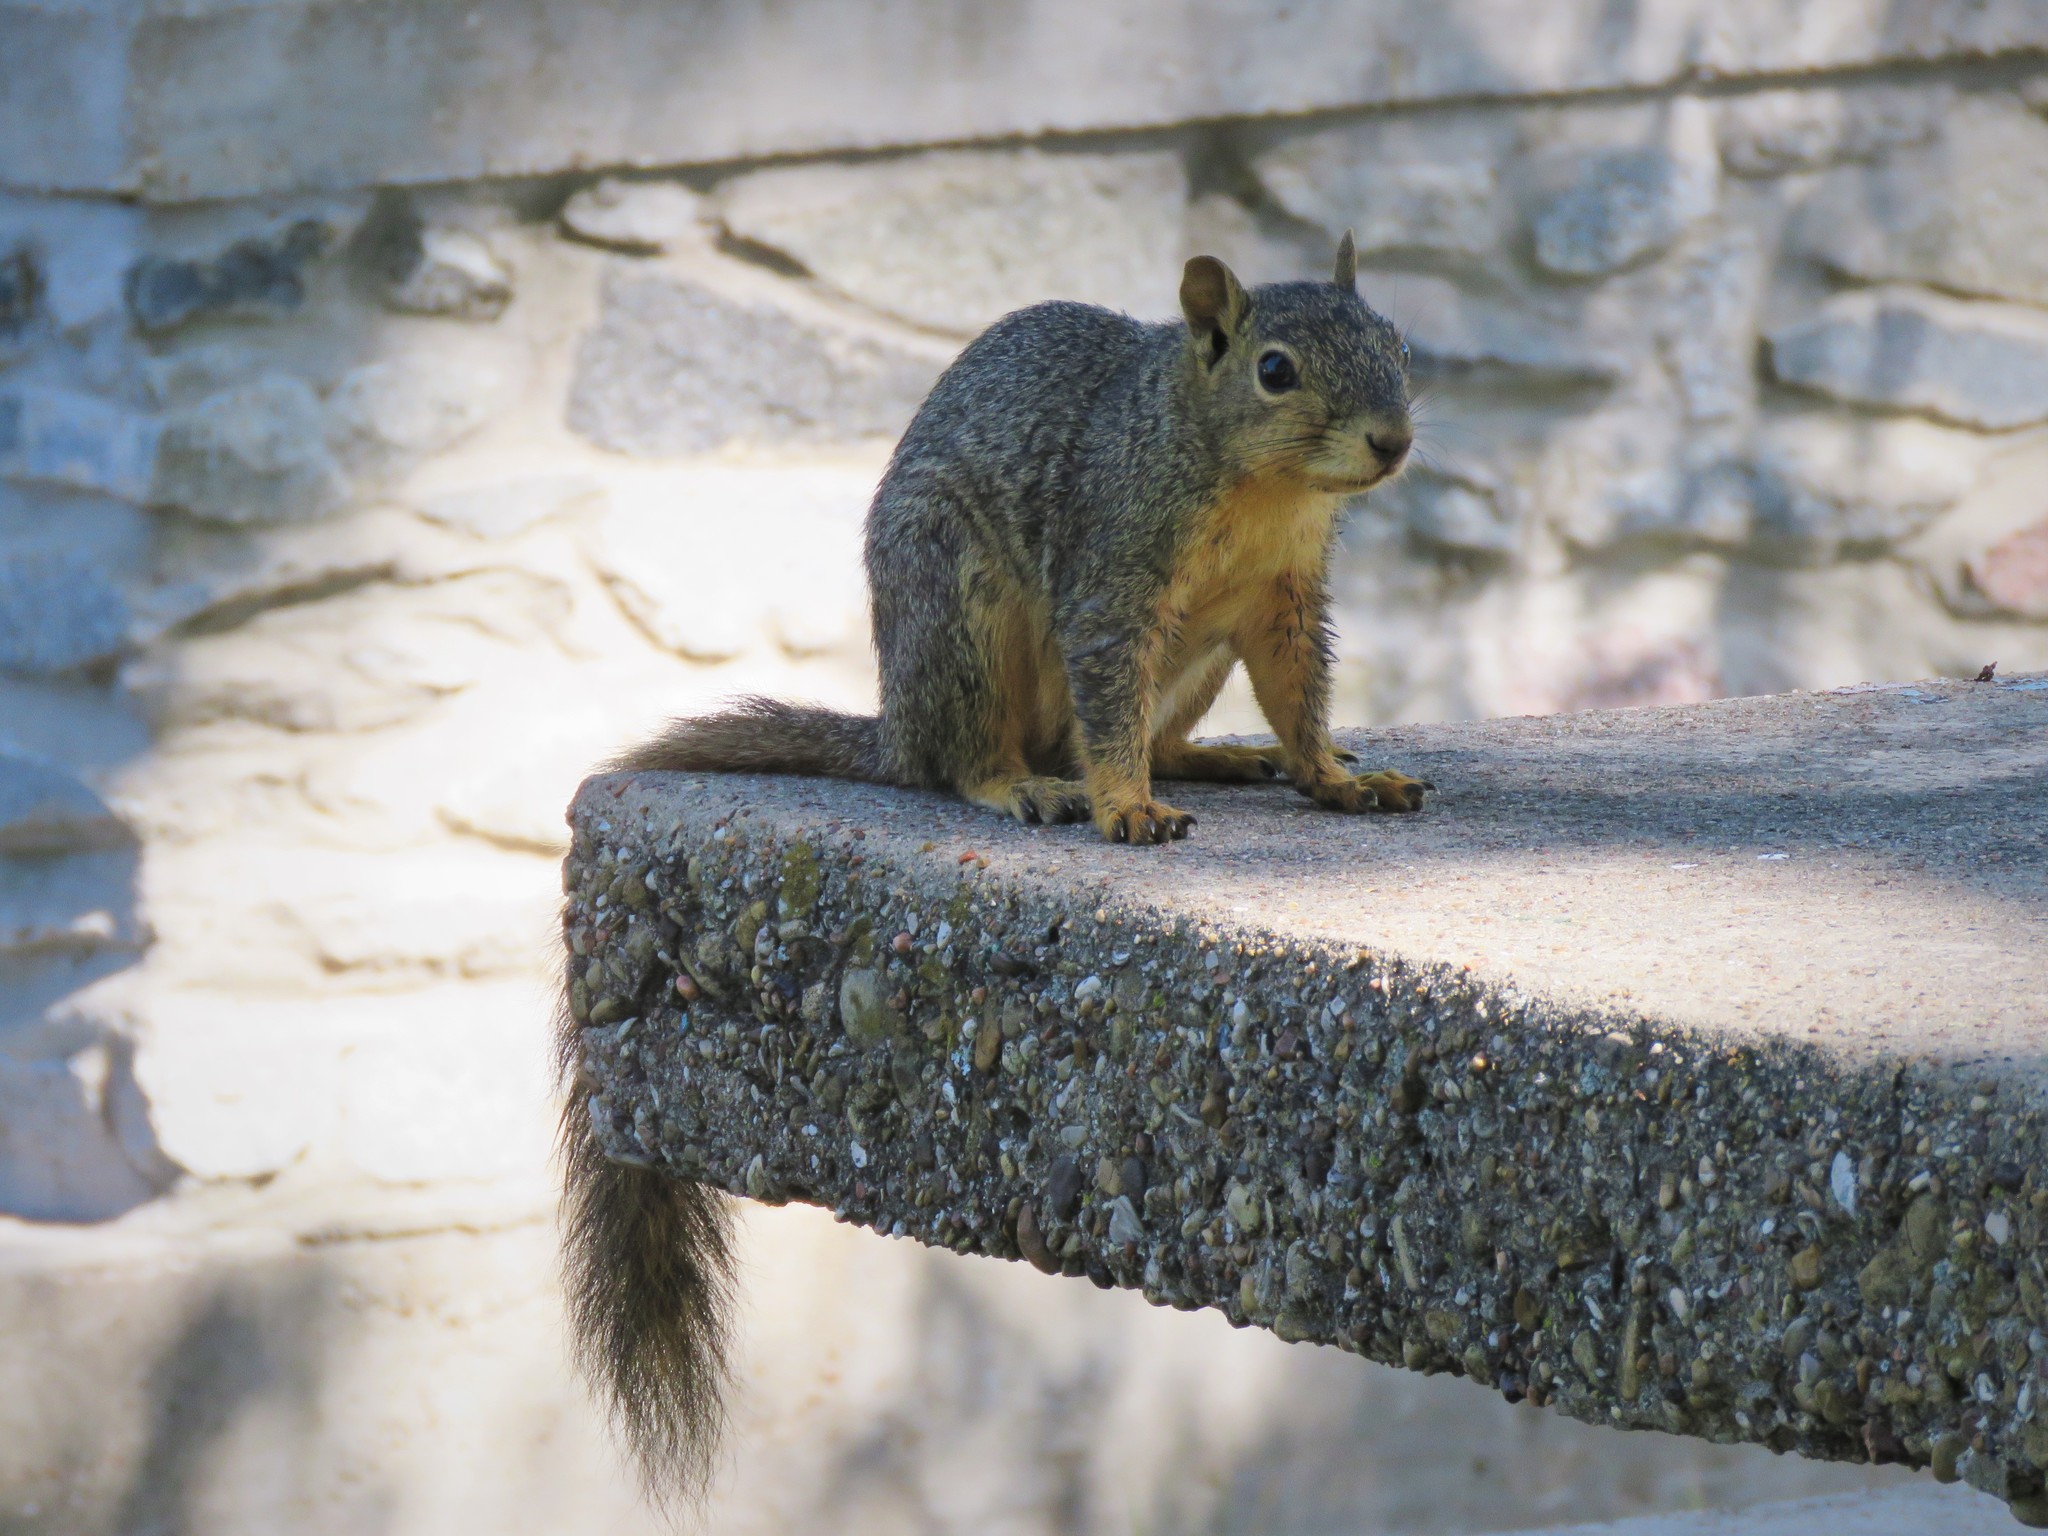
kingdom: Animalia
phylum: Chordata
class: Mammalia
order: Rodentia
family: Sciuridae
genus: Sciurus
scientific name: Sciurus niger
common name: Fox squirrel
